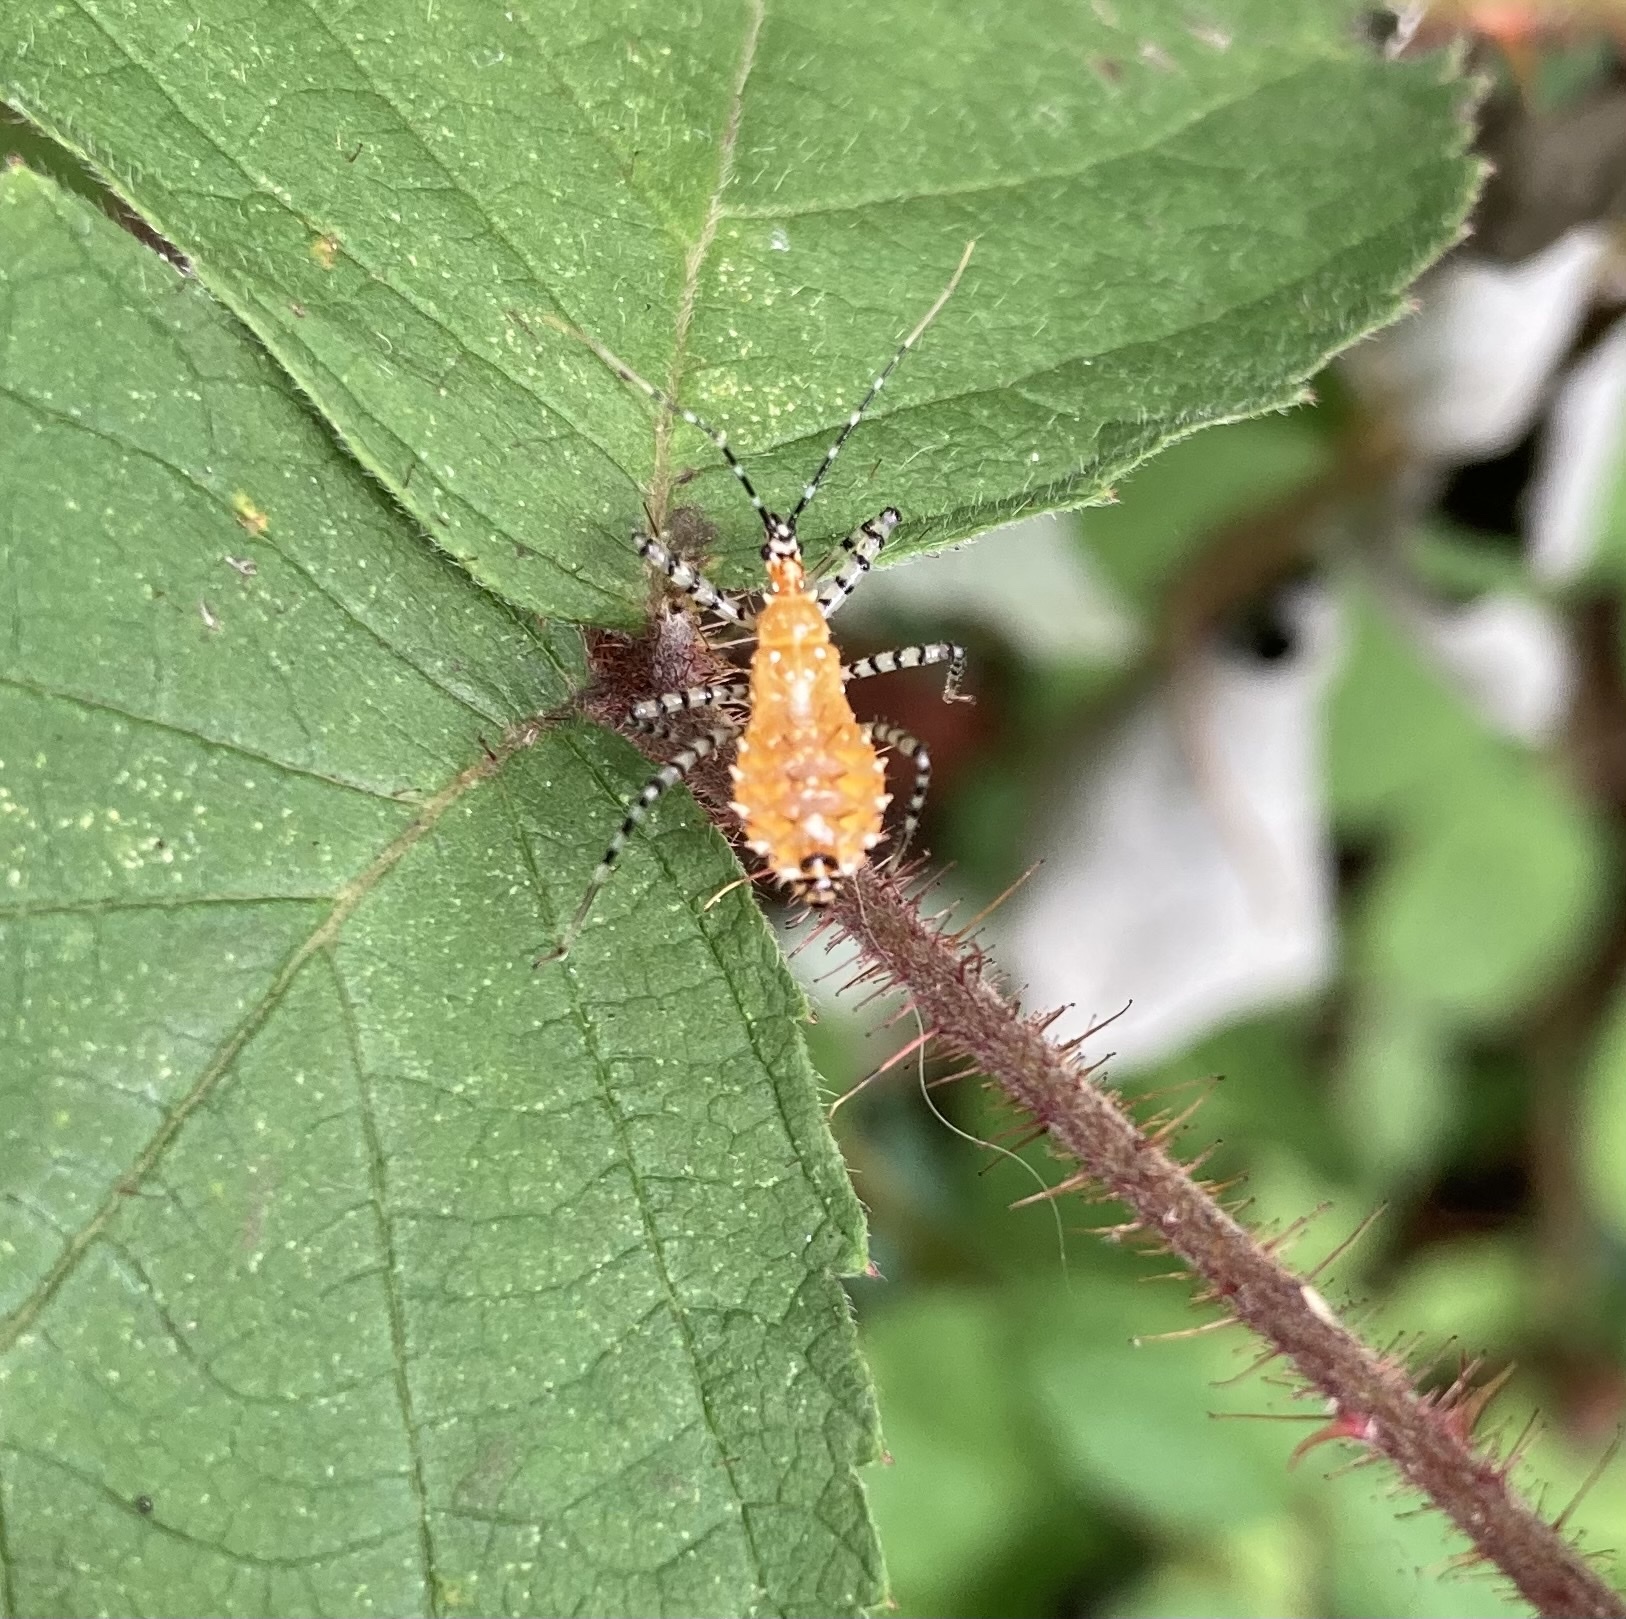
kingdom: Animalia
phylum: Arthropoda
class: Insecta
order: Hemiptera
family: Reduviidae
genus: Pselliopus
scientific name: Pselliopus cinctus
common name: Ringed assassin bug
